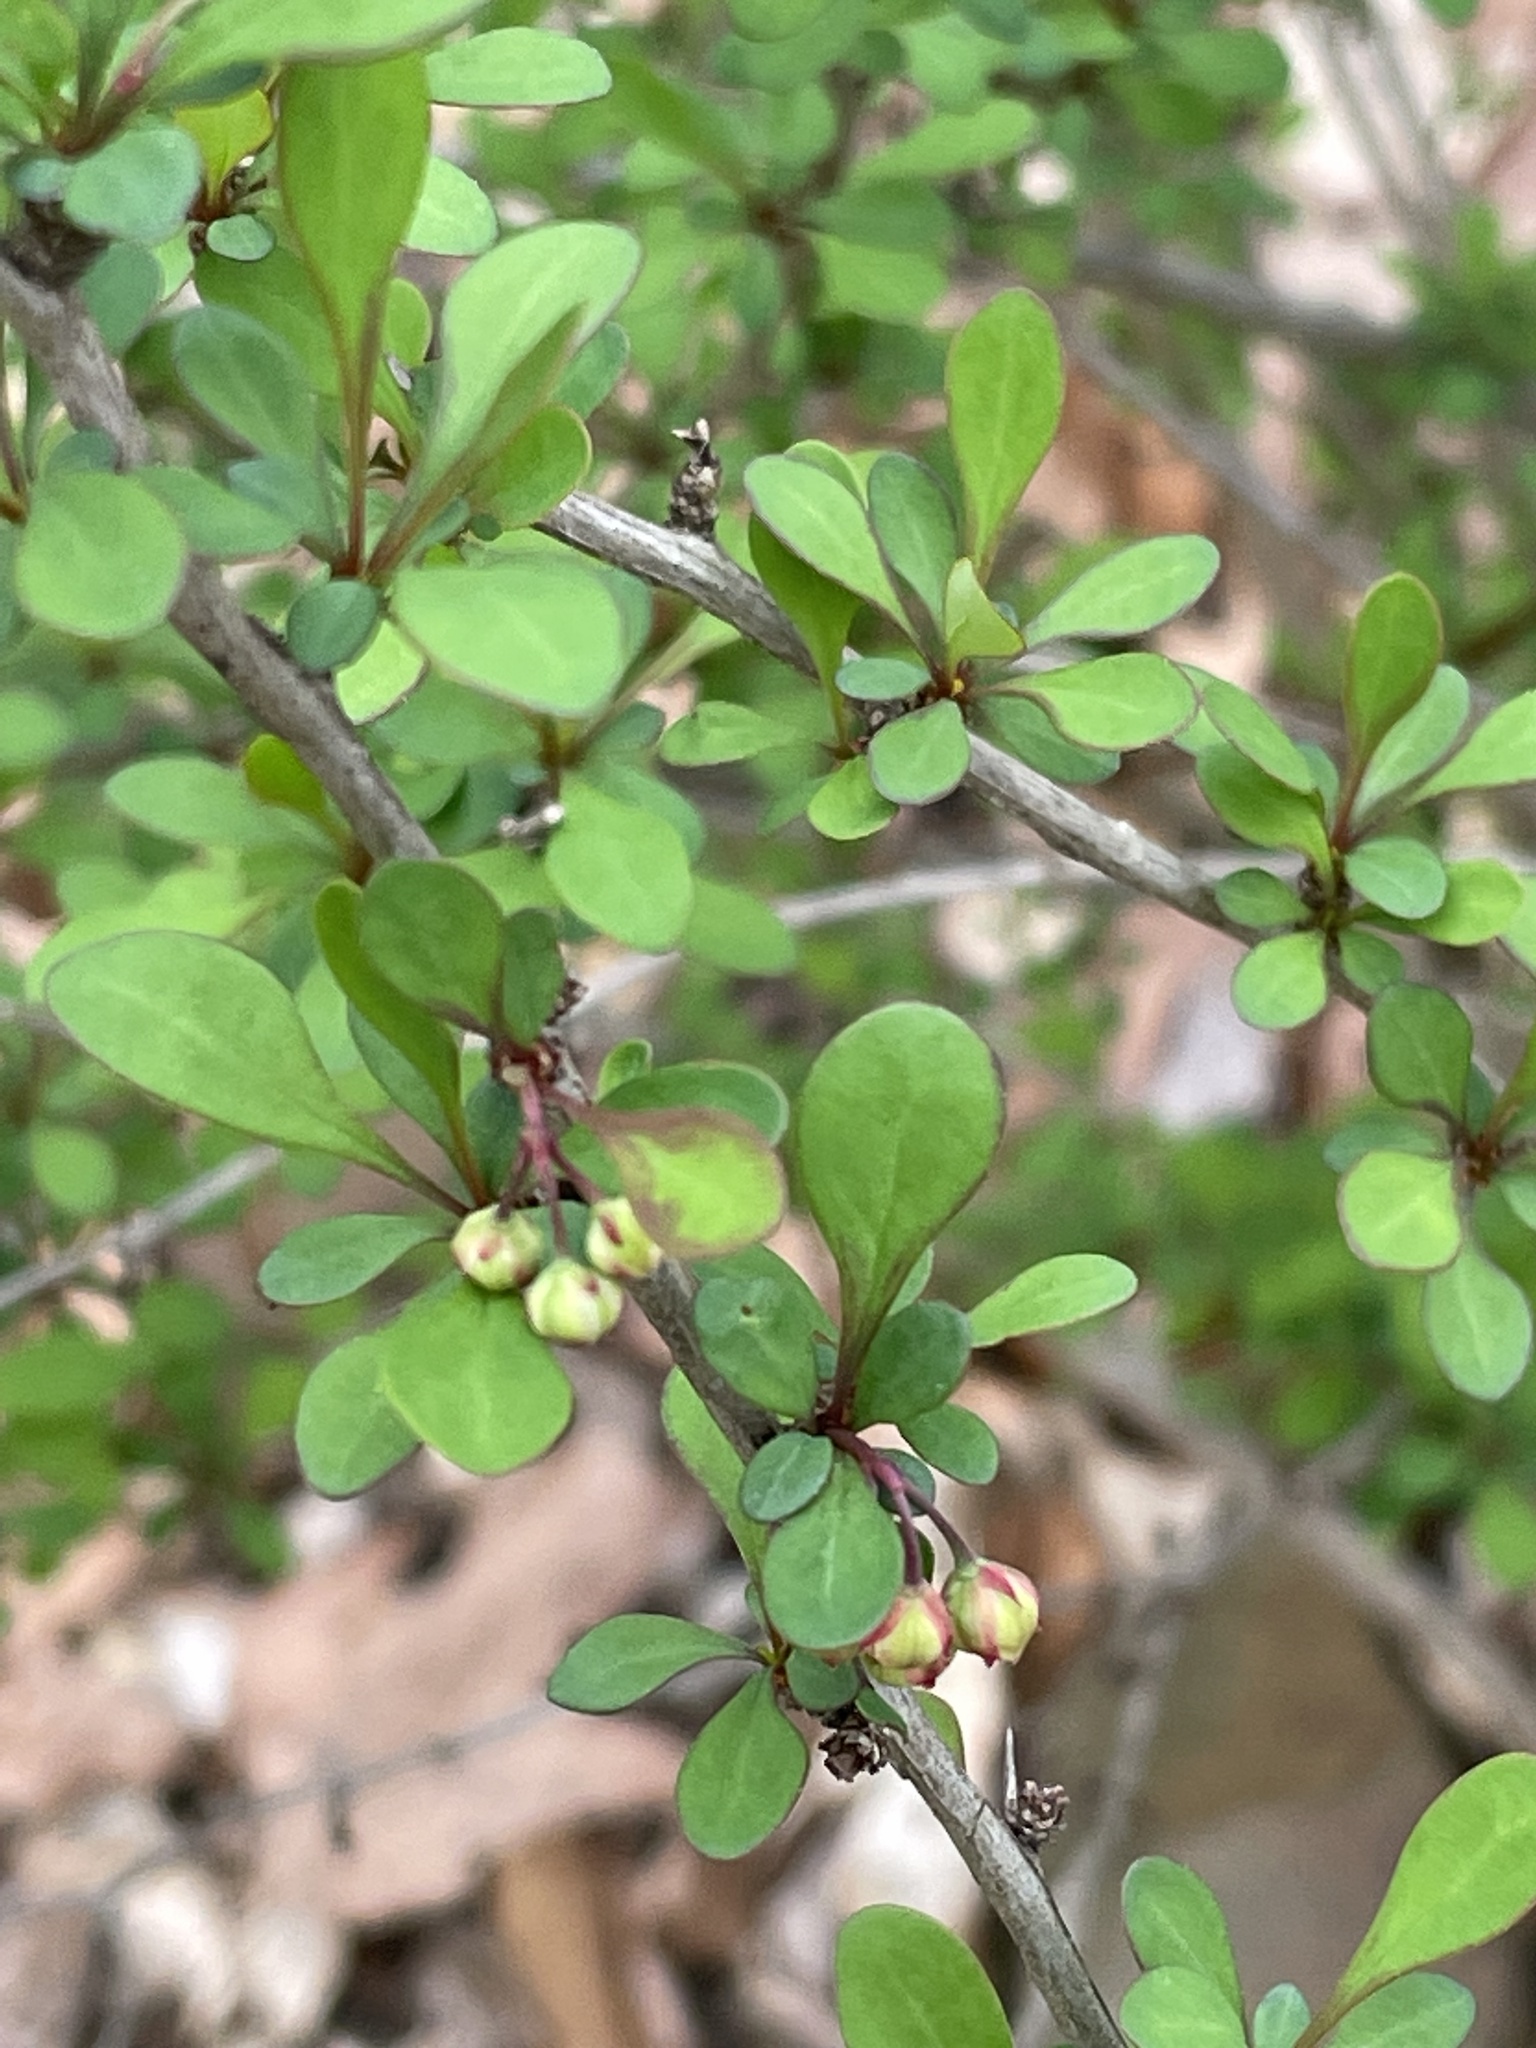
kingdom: Plantae
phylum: Tracheophyta
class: Magnoliopsida
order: Ranunculales
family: Berberidaceae
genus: Berberis
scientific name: Berberis thunbergii
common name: Japanese barberry
